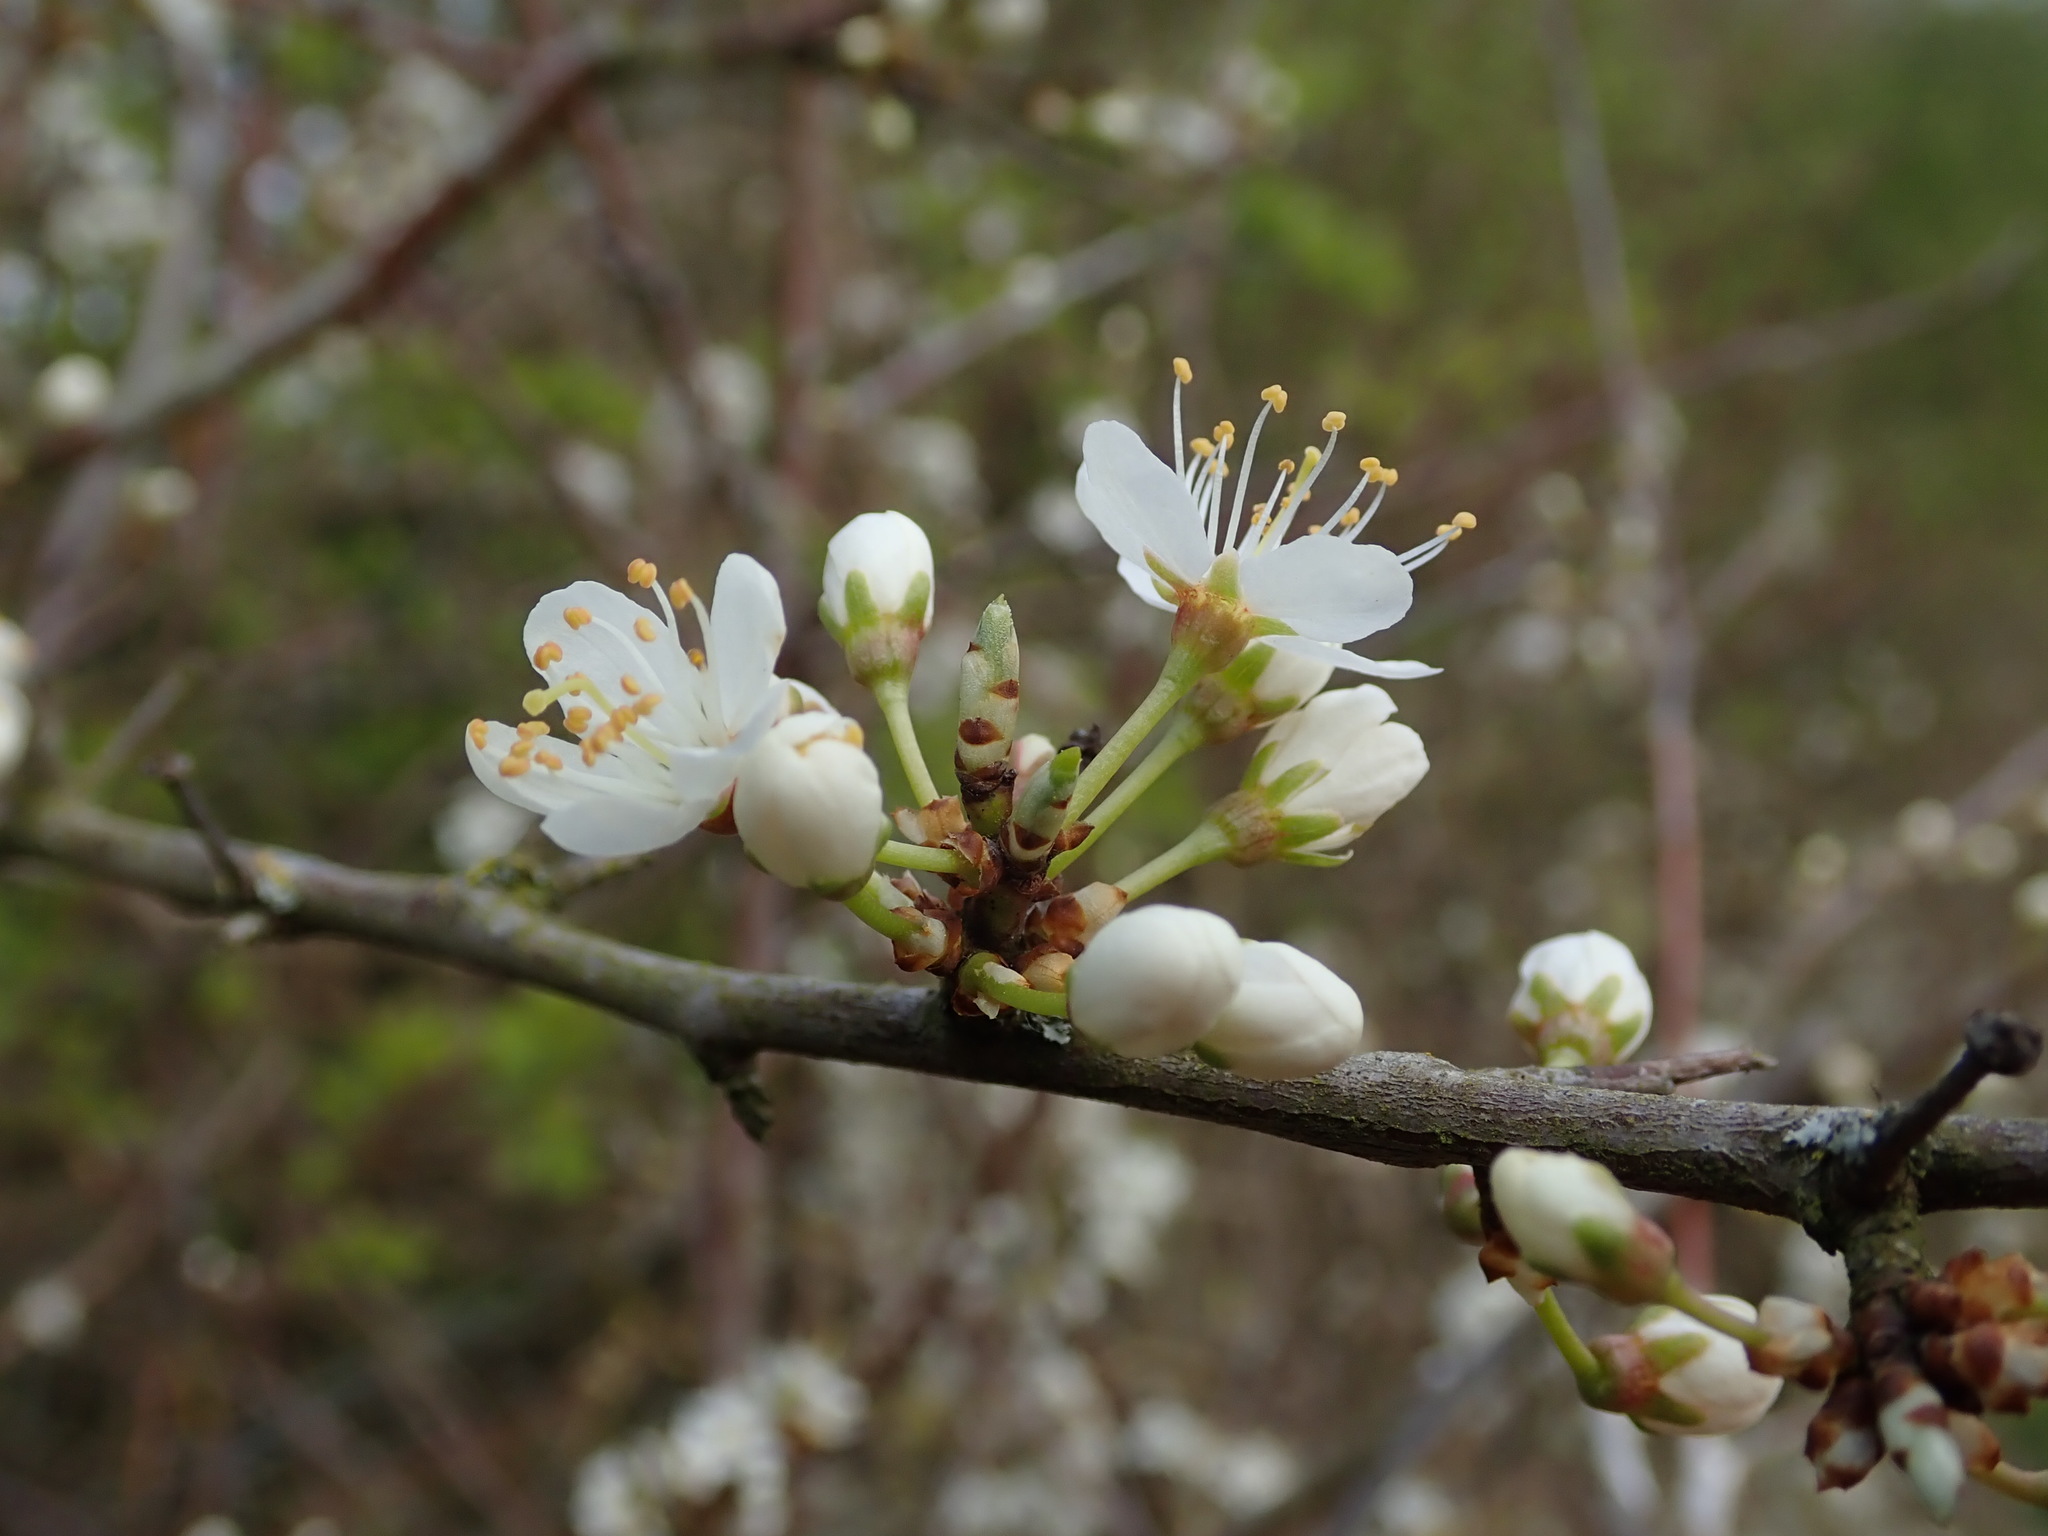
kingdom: Plantae
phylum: Tracheophyta
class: Magnoliopsida
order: Rosales
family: Rosaceae
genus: Prunus
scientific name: Prunus spinosa
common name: Blackthorn
